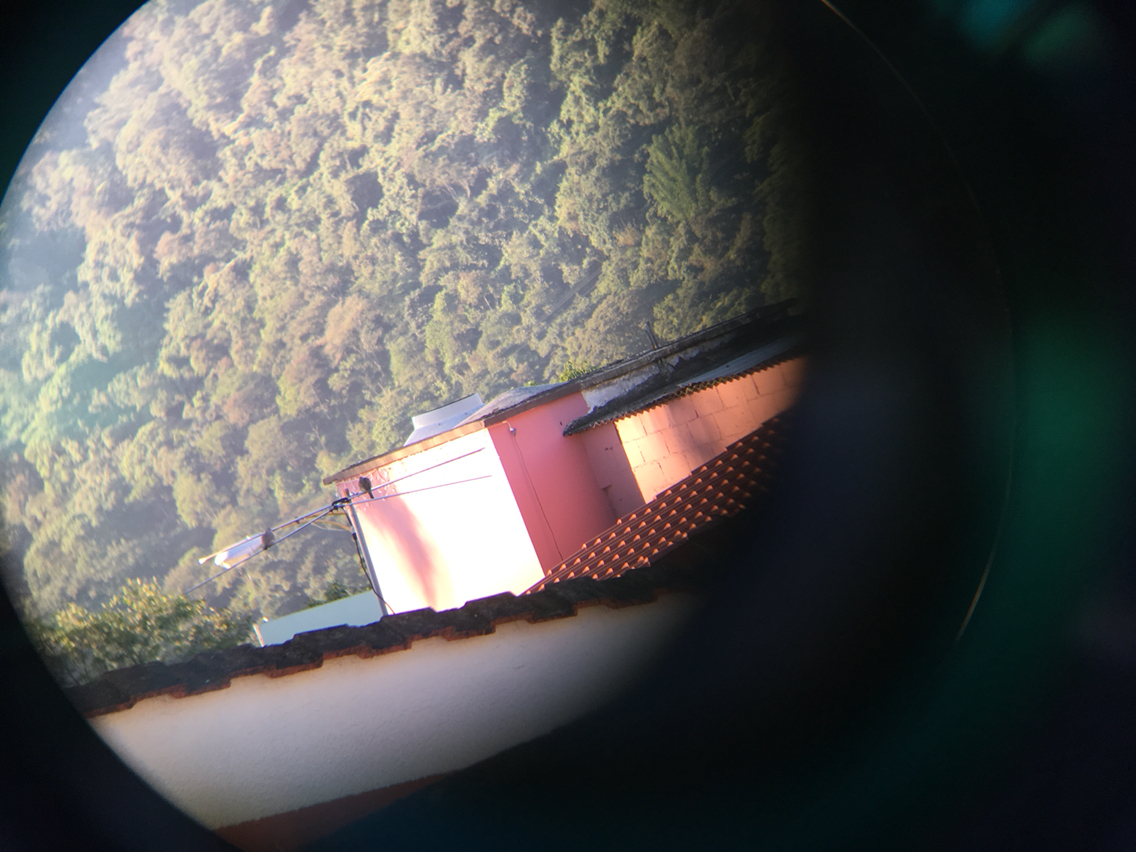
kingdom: Animalia
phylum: Chordata
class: Aves
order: Columbiformes
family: Columbidae
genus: Columbina
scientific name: Columbina inca
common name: Inca dove
